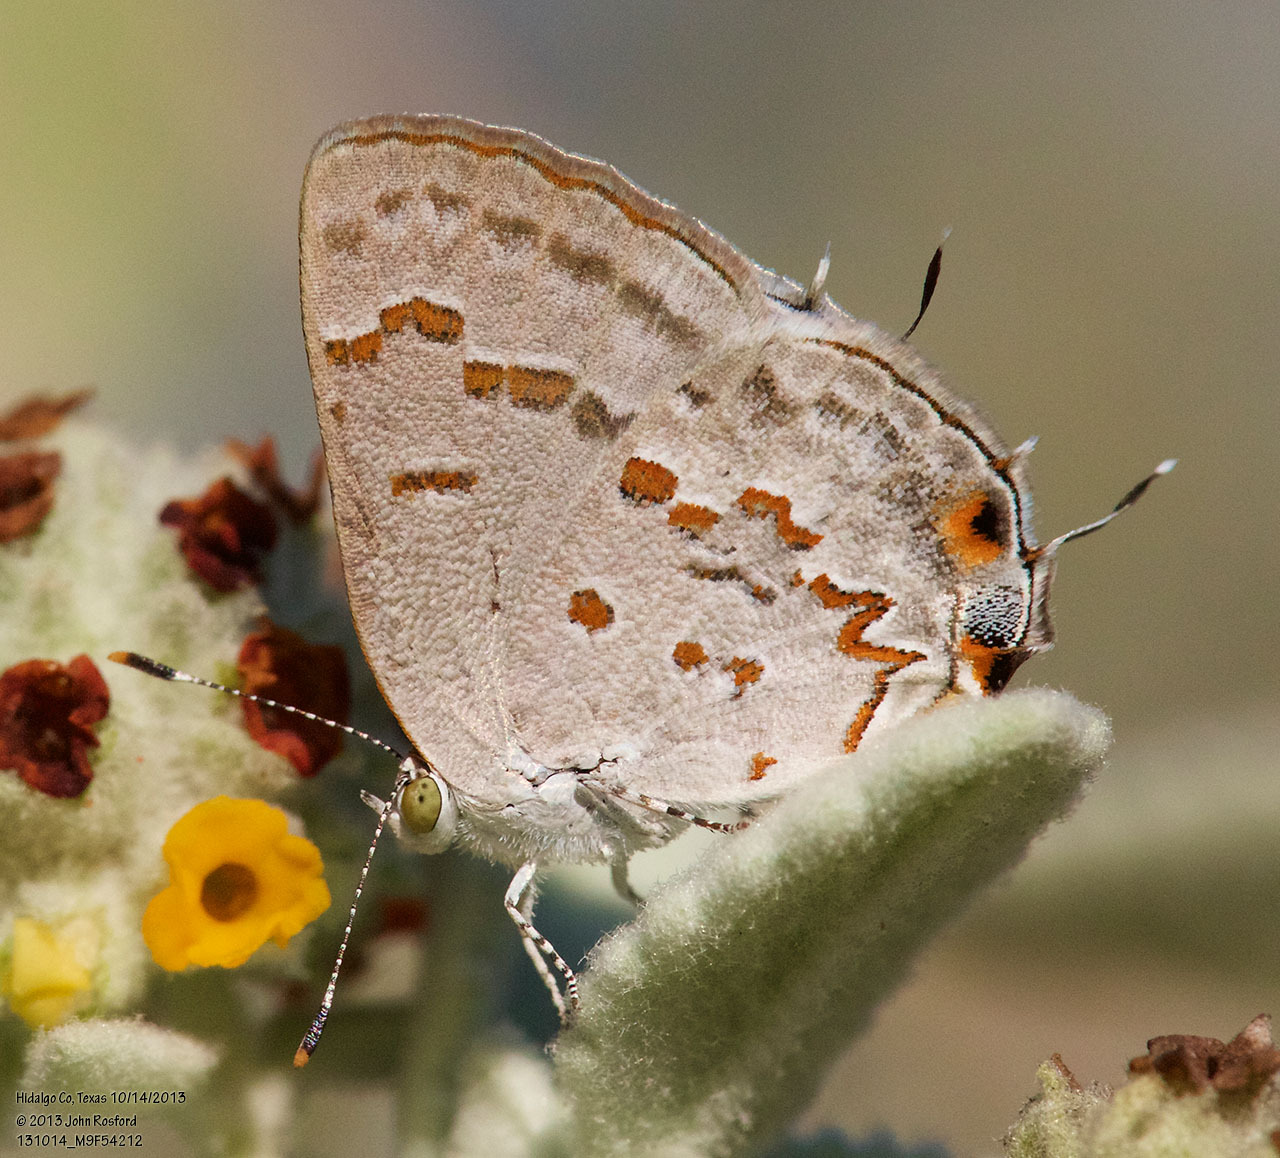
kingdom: Animalia
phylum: Arthropoda
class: Insecta
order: Lepidoptera
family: Lycaenidae
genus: Ministrymon
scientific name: Ministrymon clytie
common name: Clytie ministreak
